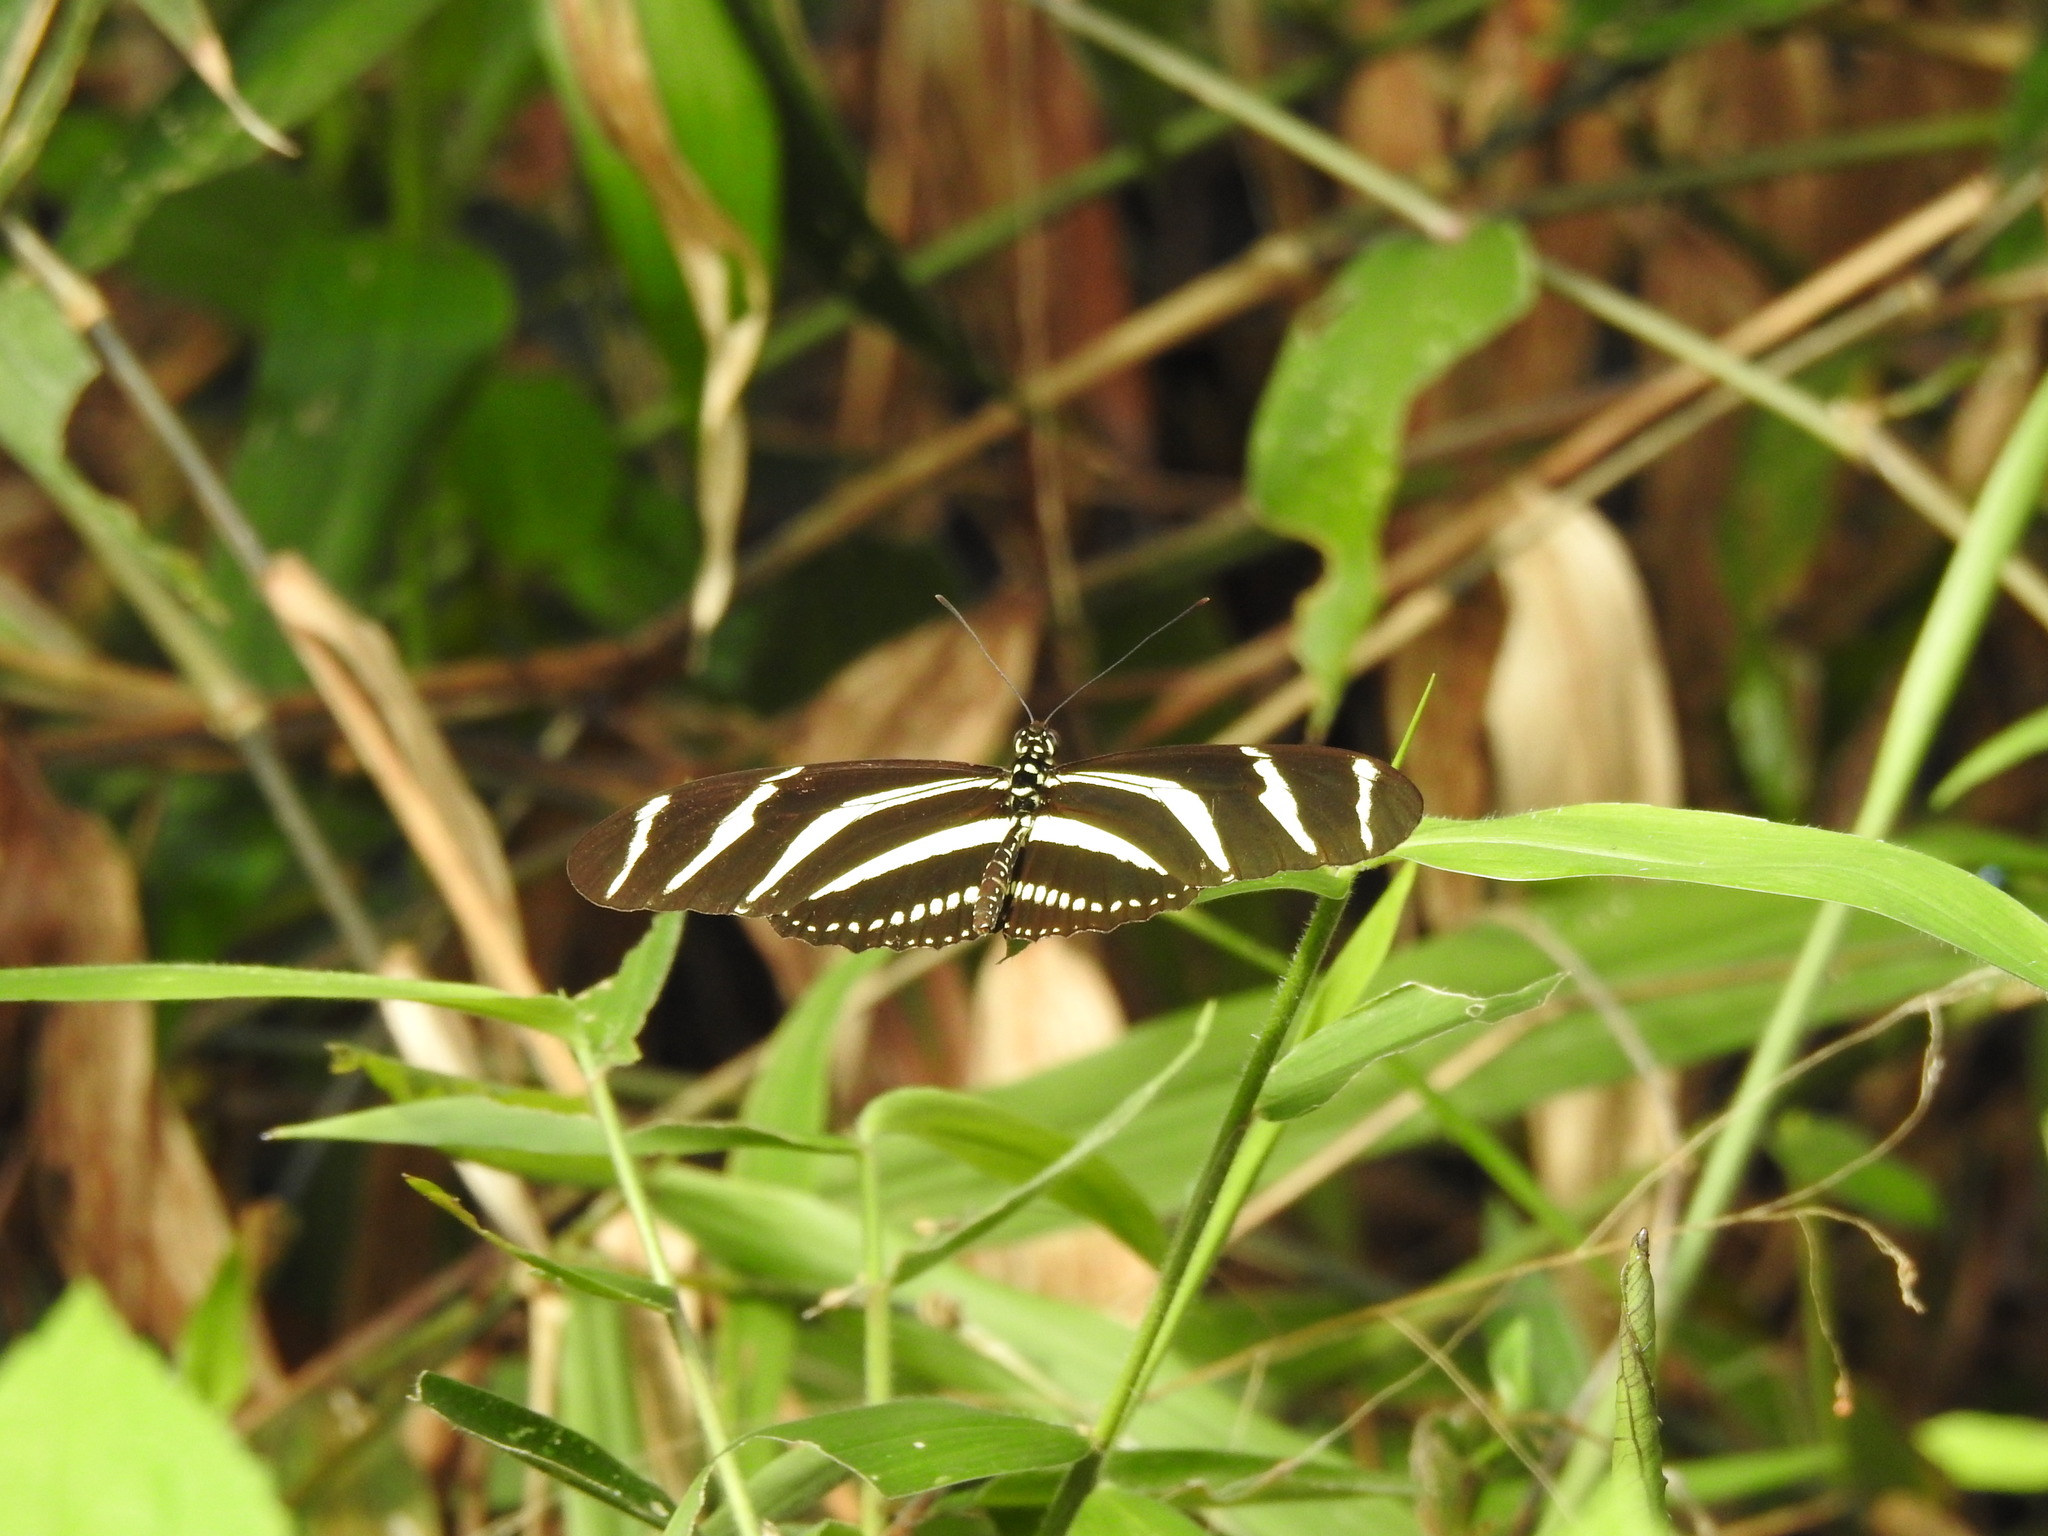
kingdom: Animalia
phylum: Arthropoda
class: Insecta
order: Lepidoptera
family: Nymphalidae
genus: Heliconius
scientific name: Heliconius charithonia
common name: Zebra long wing
